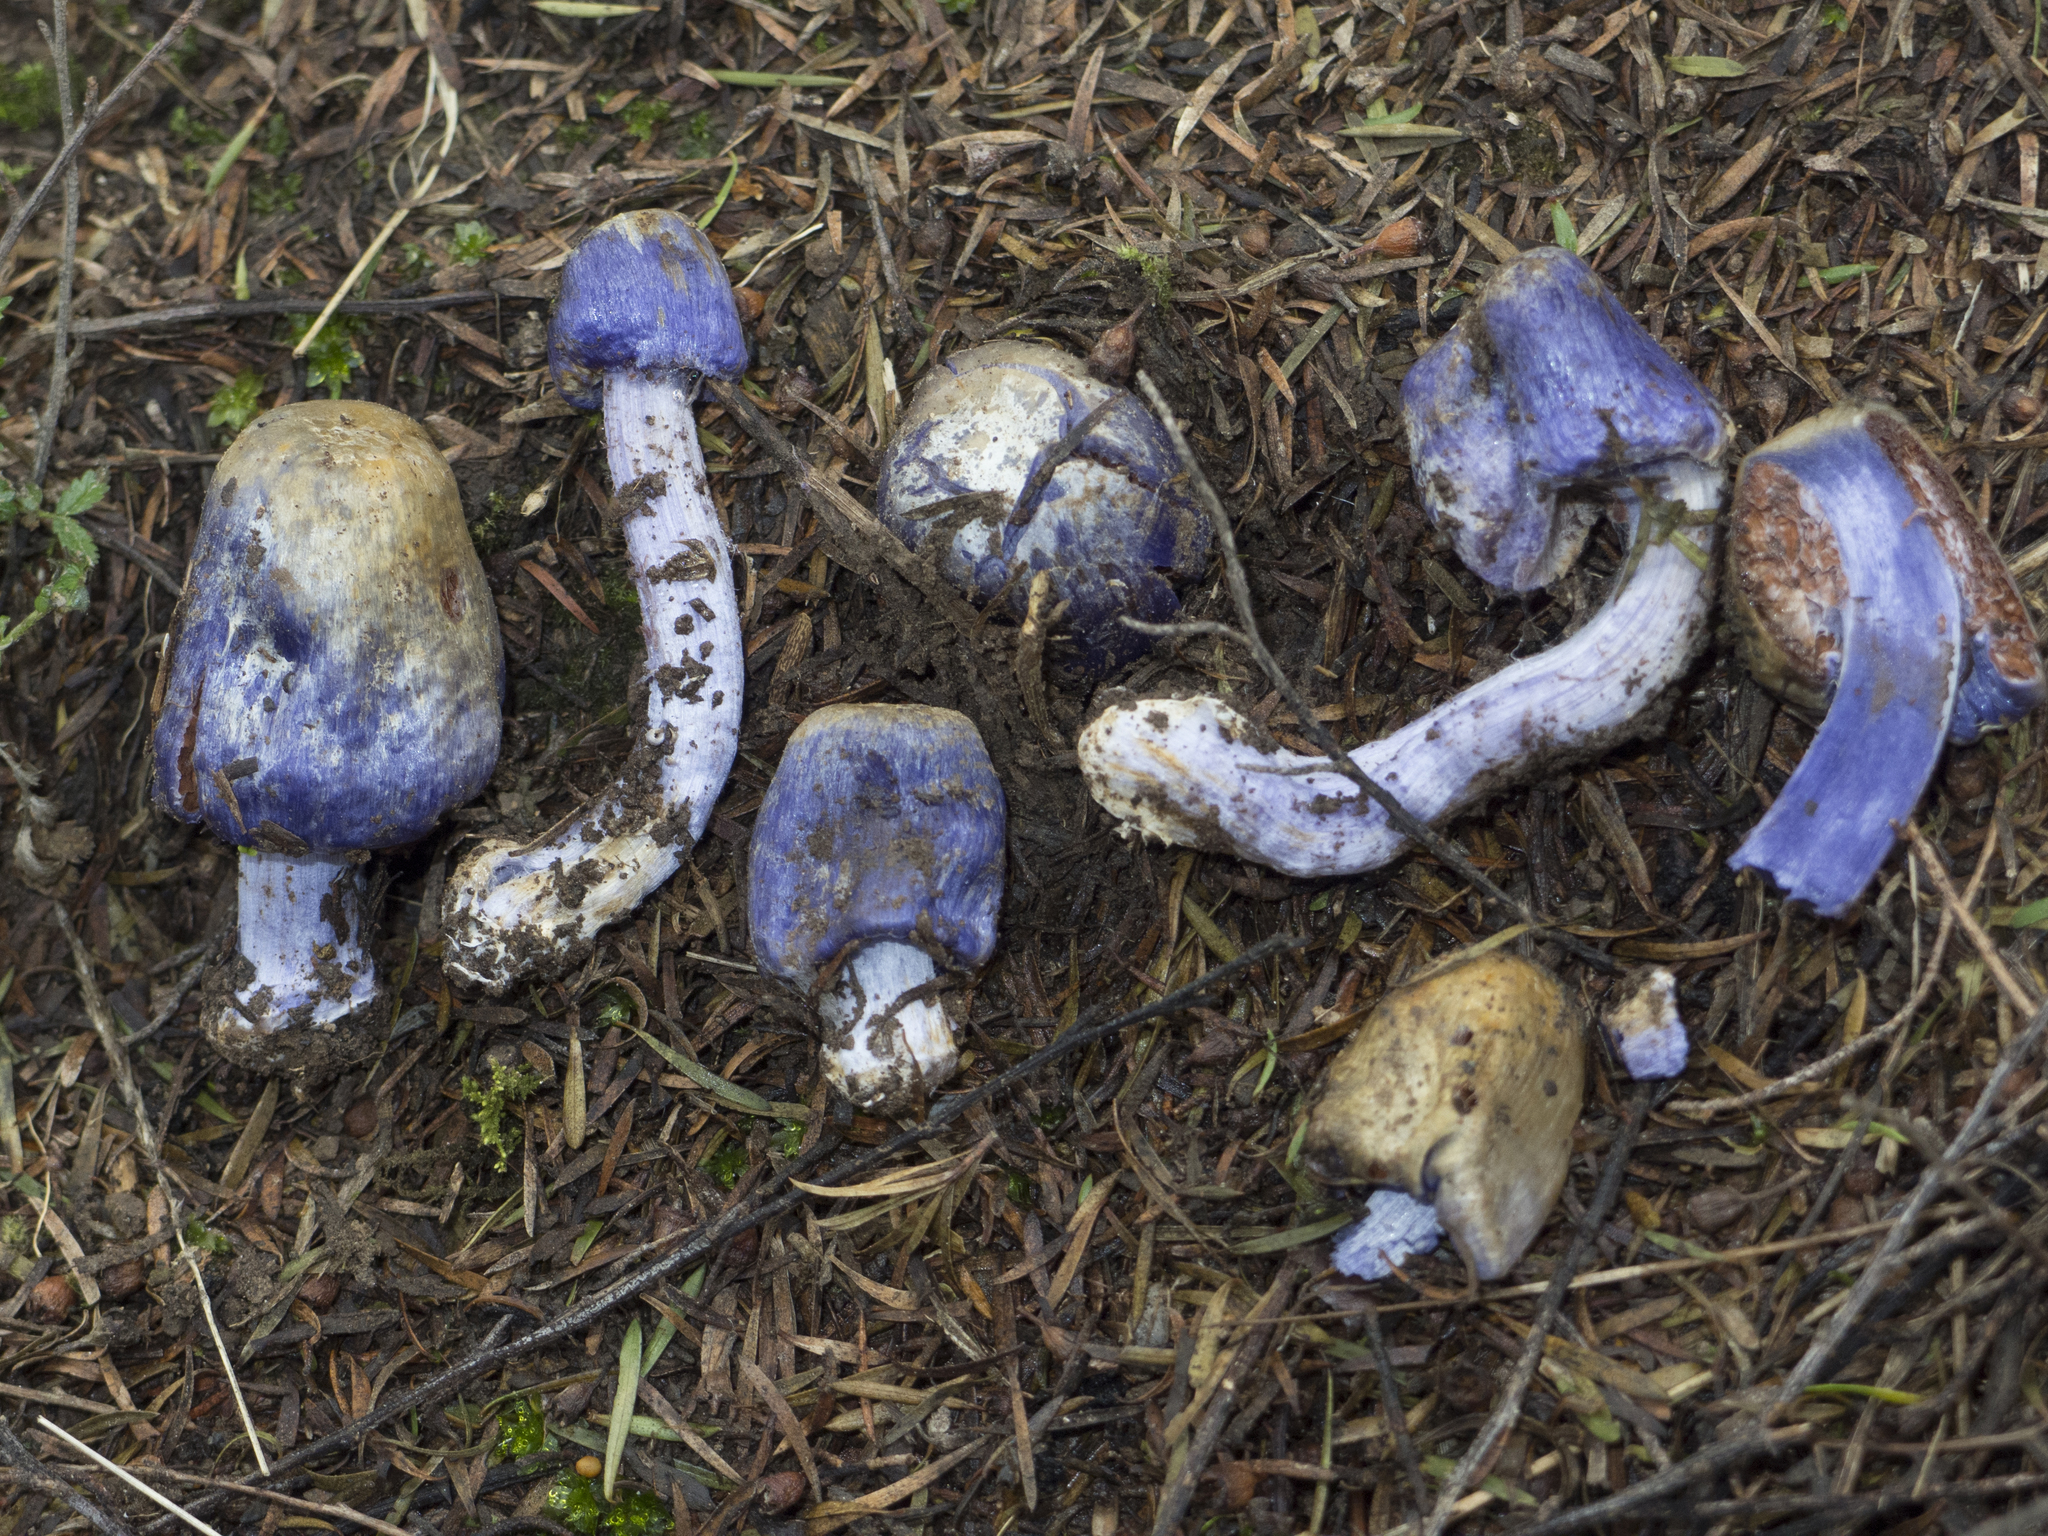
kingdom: Fungi
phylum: Basidiomycota
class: Agaricomycetes
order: Agaricales
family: Cortinariaceae
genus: Cortinarius
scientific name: Cortinarius coneae
